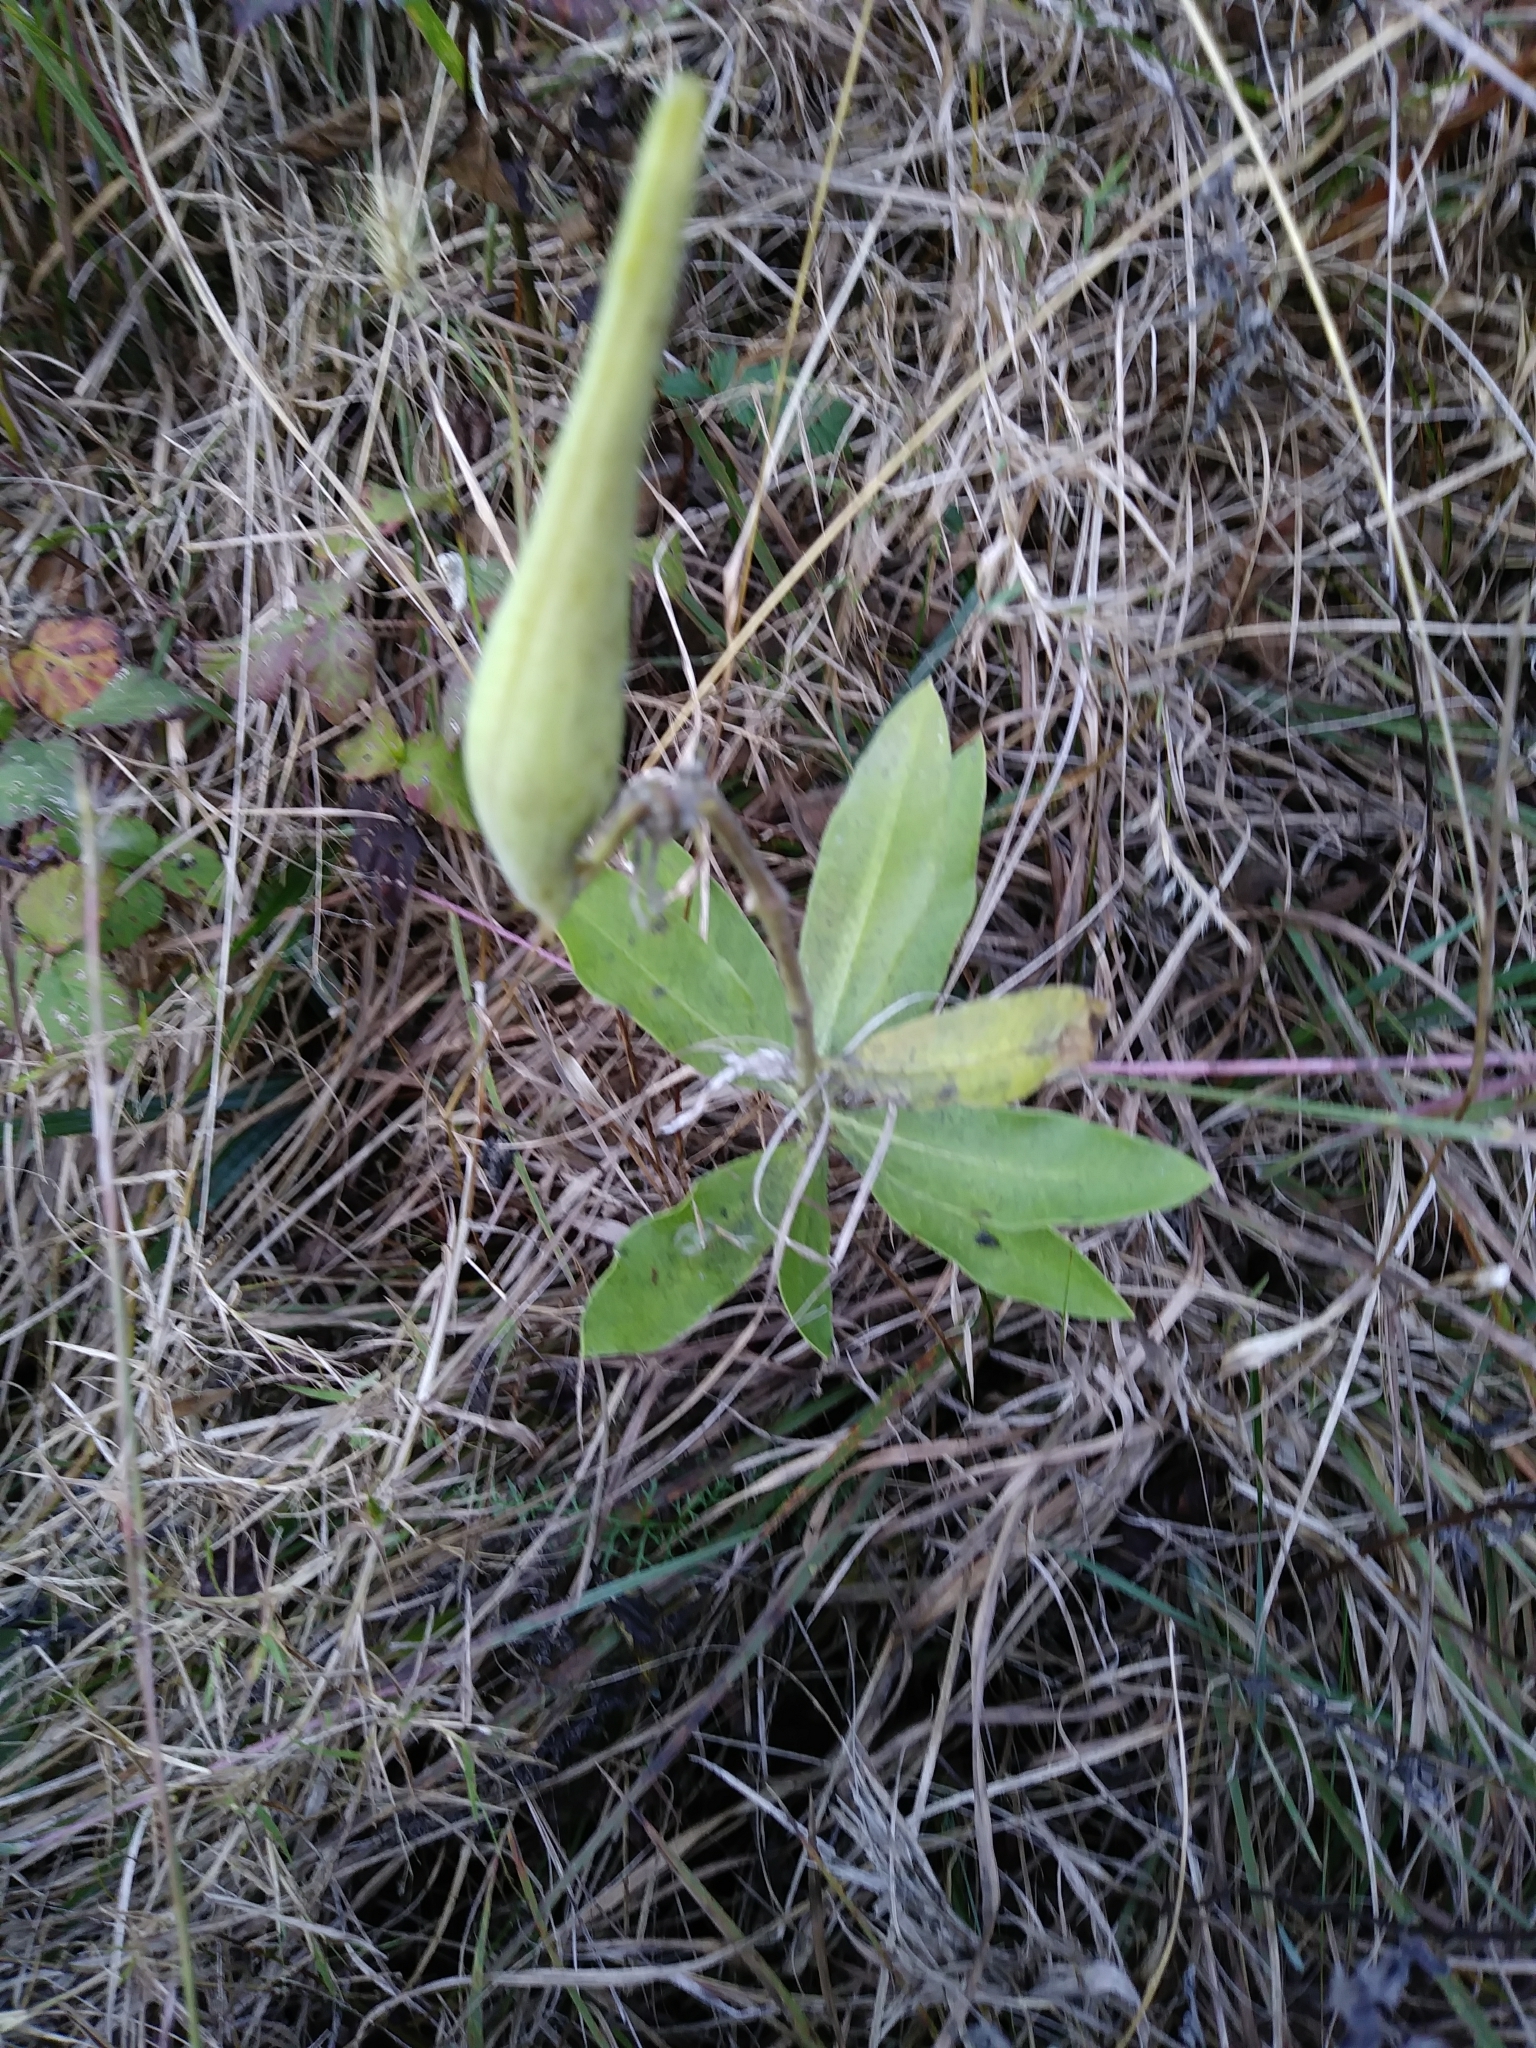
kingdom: Plantae
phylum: Tracheophyta
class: Magnoliopsida
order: Gentianales
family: Apocynaceae
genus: Asclepias
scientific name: Asclepias viridiflora
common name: Green comet milkweed
